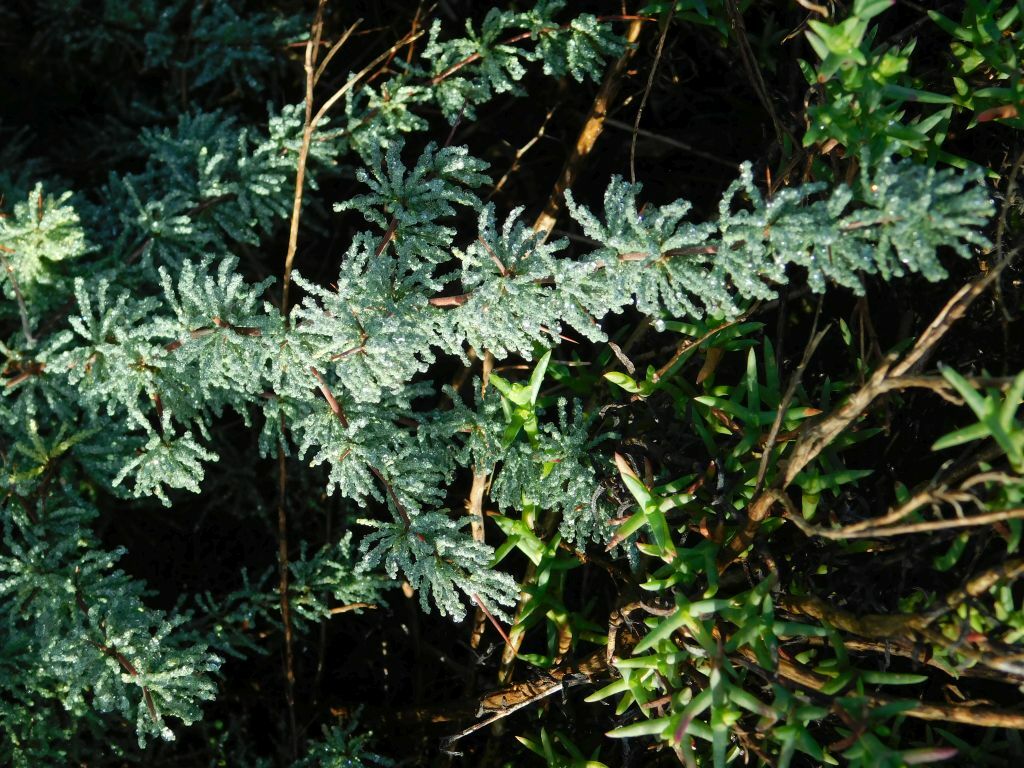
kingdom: Plantae
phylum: Tracheophyta
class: Liliopsida
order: Asparagales
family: Asparagaceae
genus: Asparagus
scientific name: Asparagus capensis
